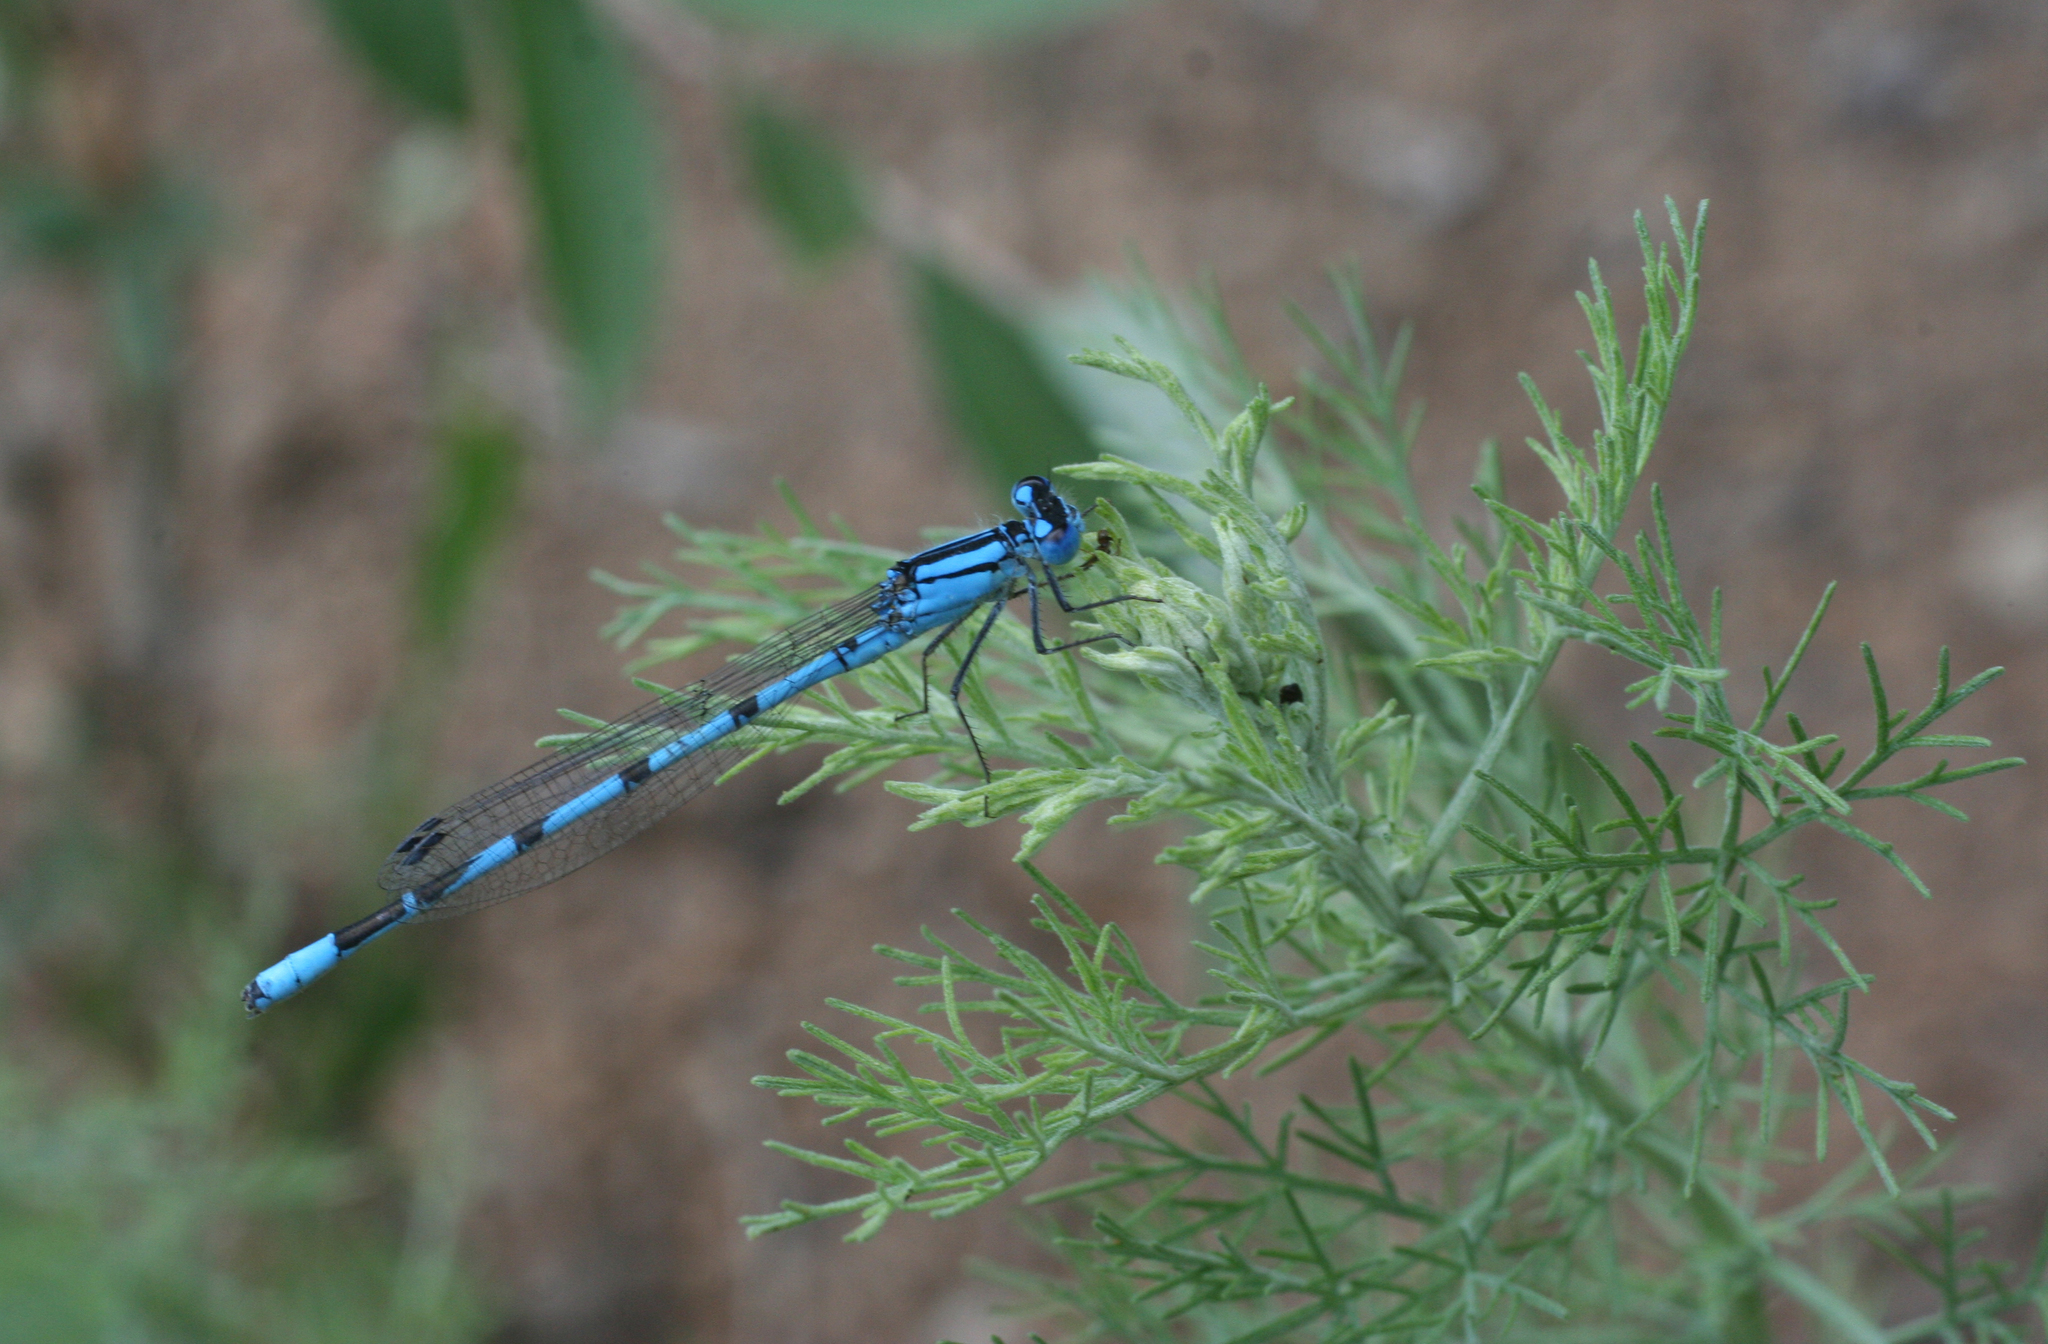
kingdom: Animalia
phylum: Arthropoda
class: Insecta
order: Odonata
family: Coenagrionidae
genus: Enallagma
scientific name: Enallagma cyathigerum
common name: Common blue damselfly
